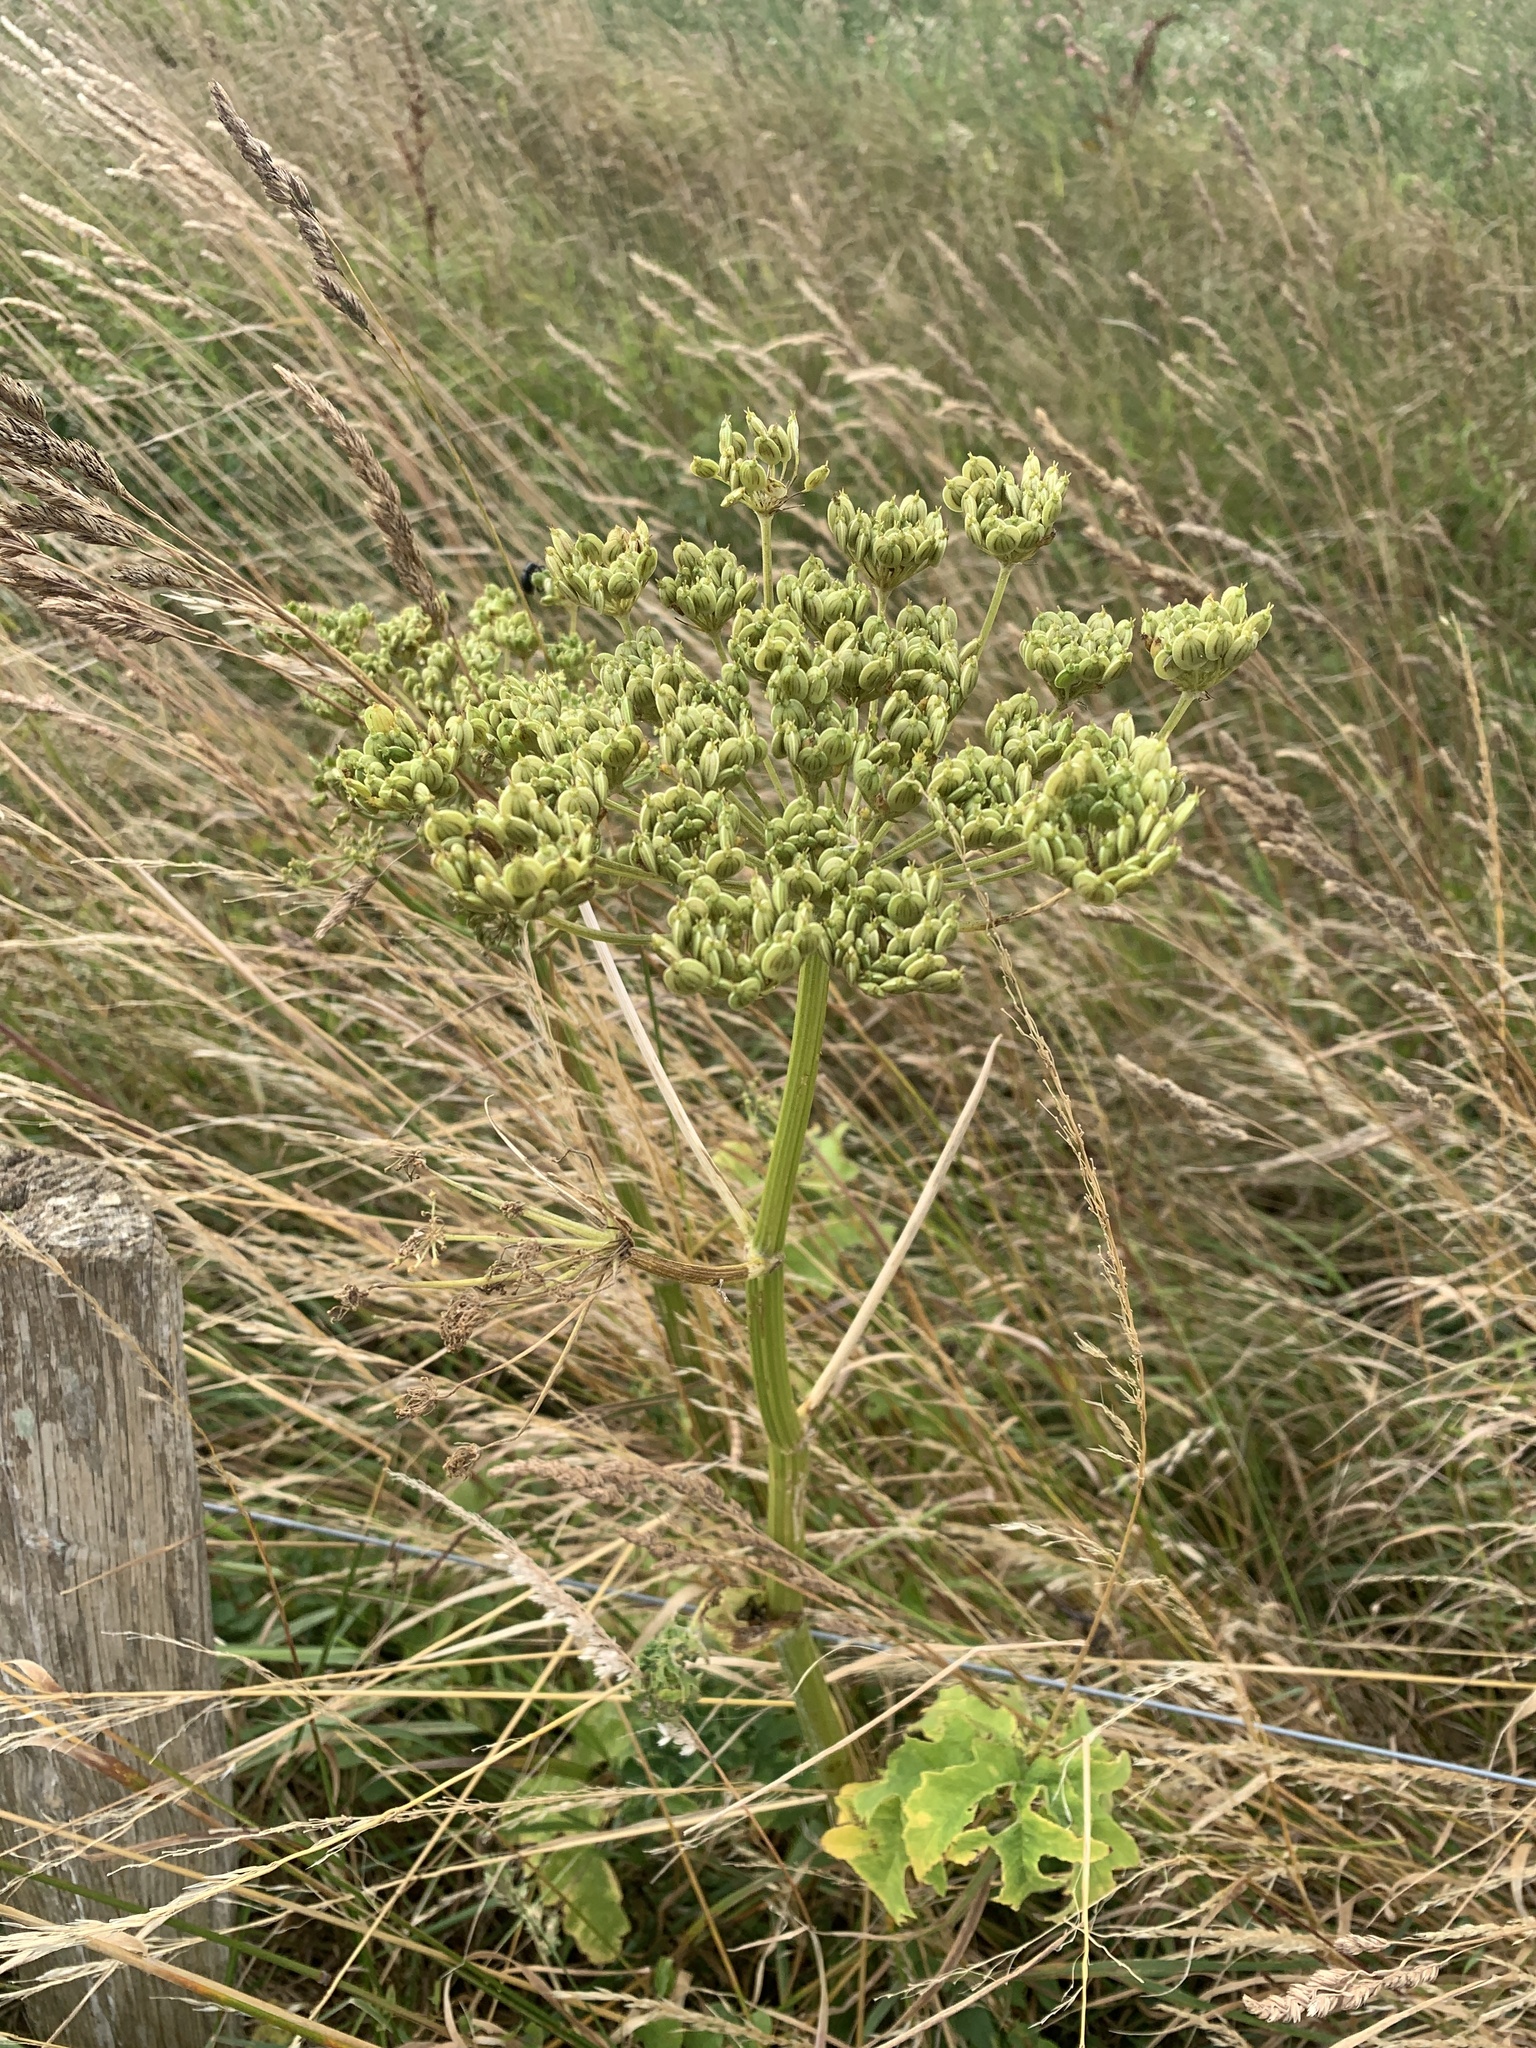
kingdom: Plantae
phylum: Tracheophyta
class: Magnoliopsida
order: Apiales
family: Apiaceae
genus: Heracleum
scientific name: Heracleum sphondylium
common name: Hogweed
